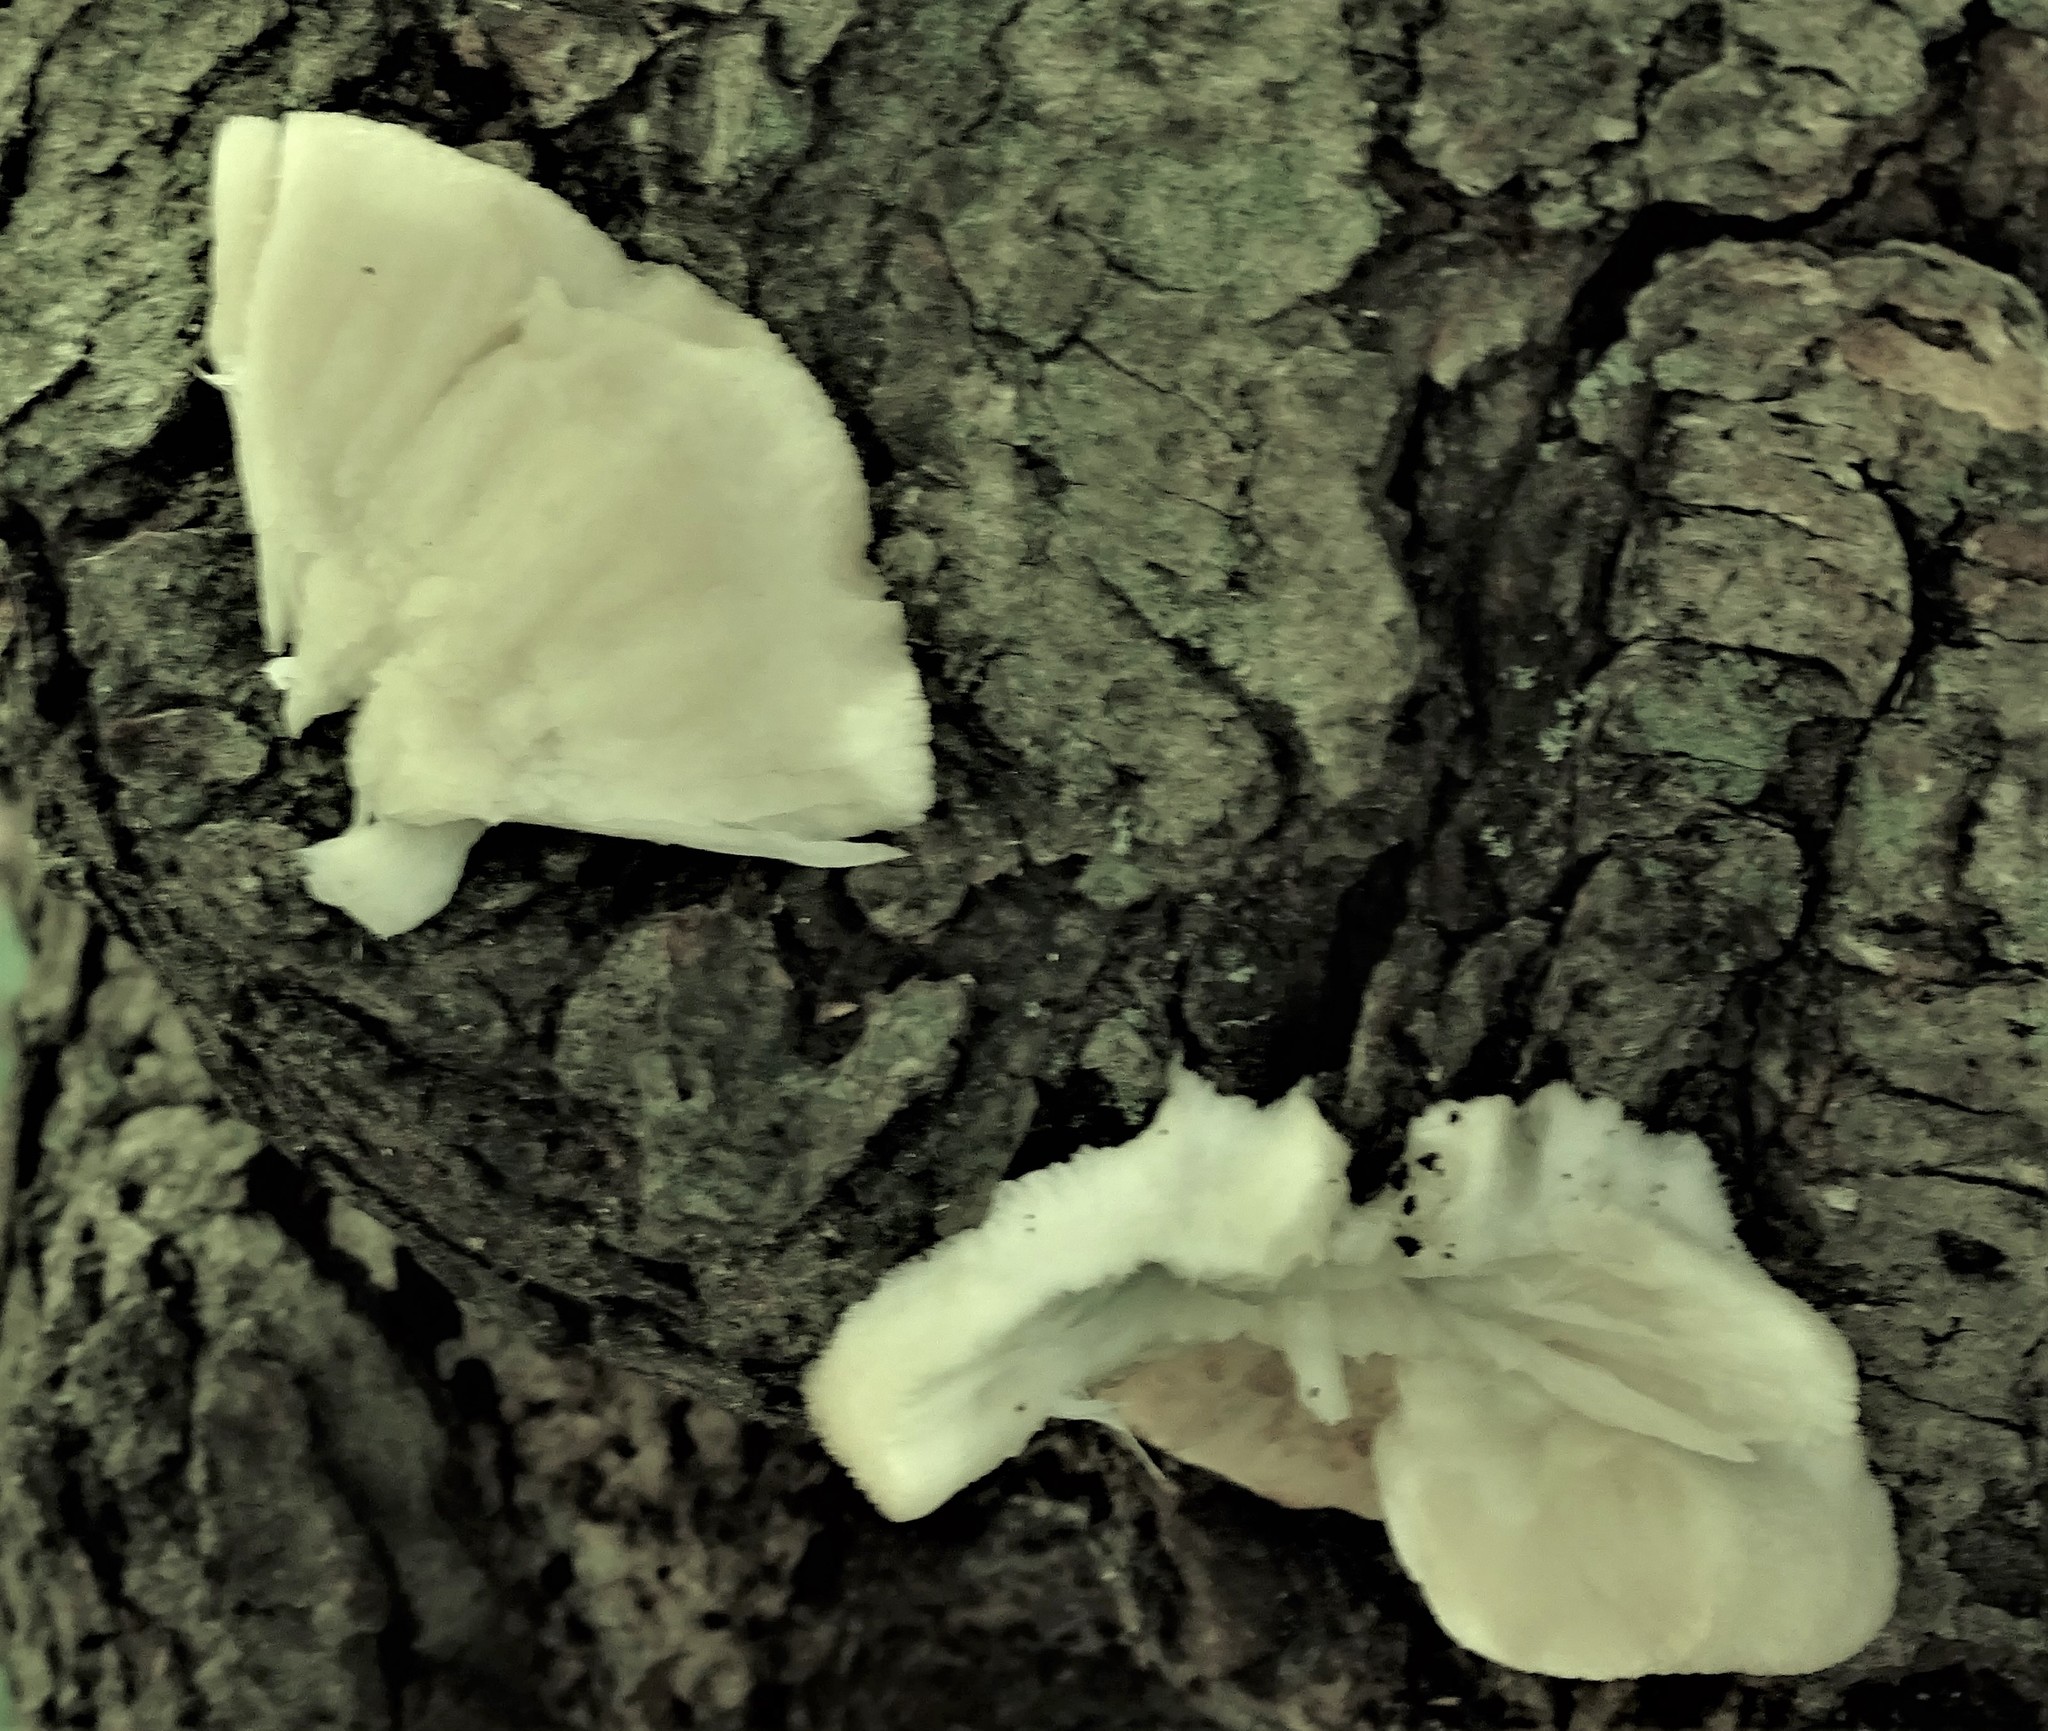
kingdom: Fungi
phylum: Basidiomycota
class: Agaricomycetes
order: Polyporales
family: Ischnodermataceae
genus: Ischnoderma
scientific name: Ischnoderma resinosum
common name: Resinous polypore
